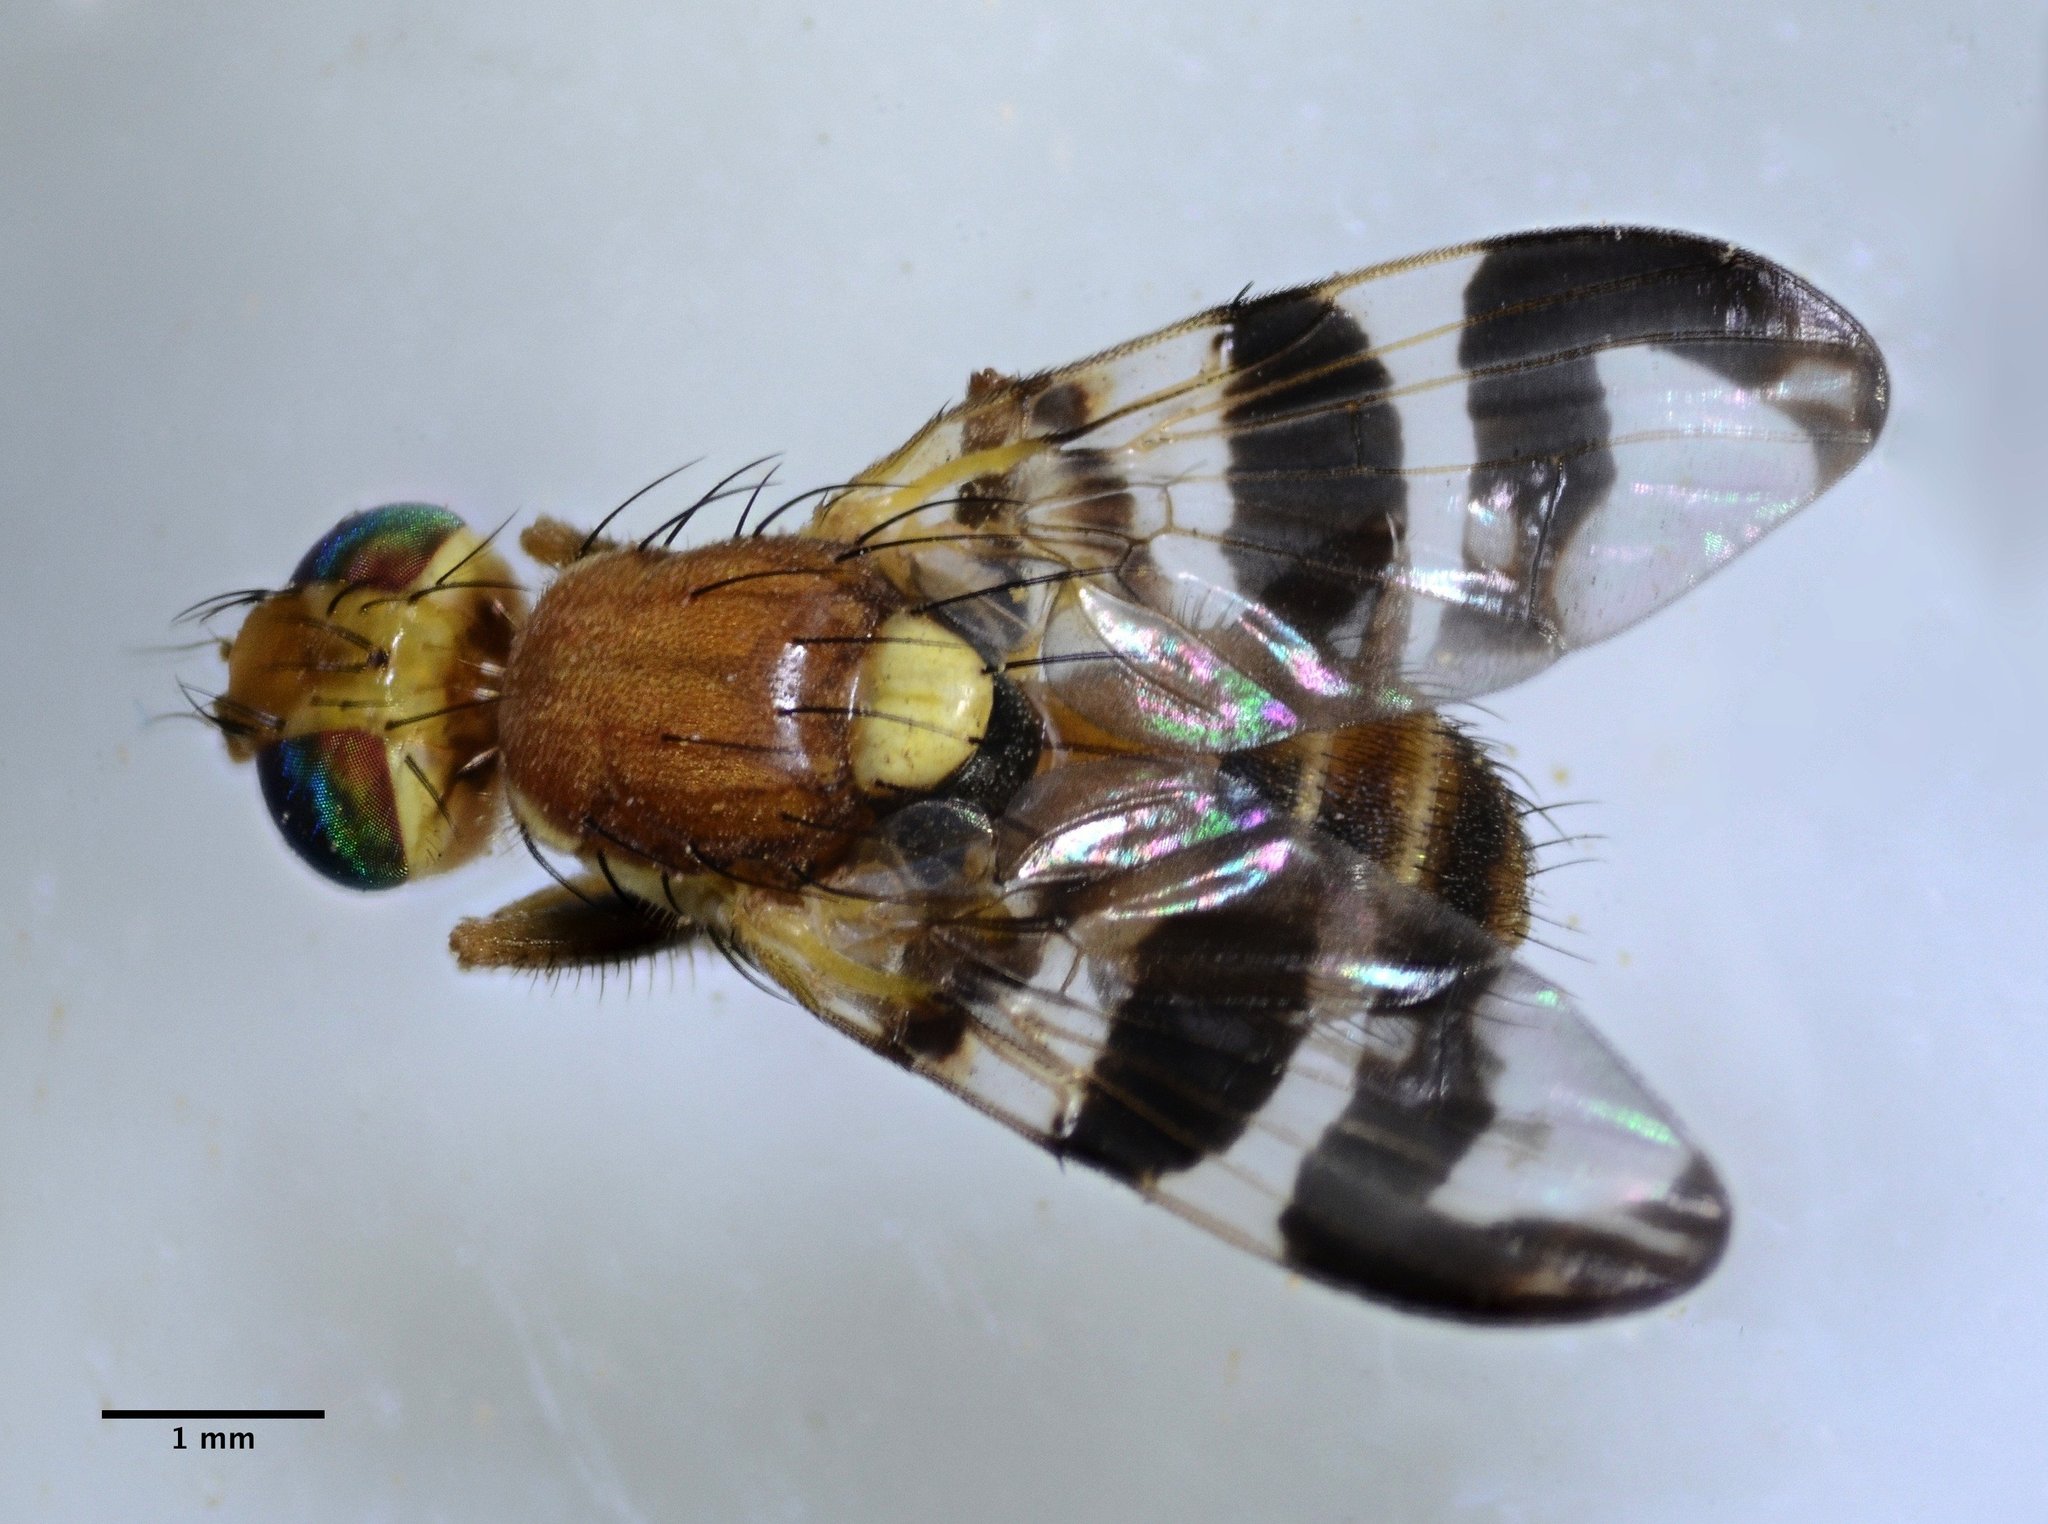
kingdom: Animalia
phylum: Arthropoda
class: Insecta
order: Diptera
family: Tephritidae
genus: Rhagoletis
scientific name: Rhagoletis completa
